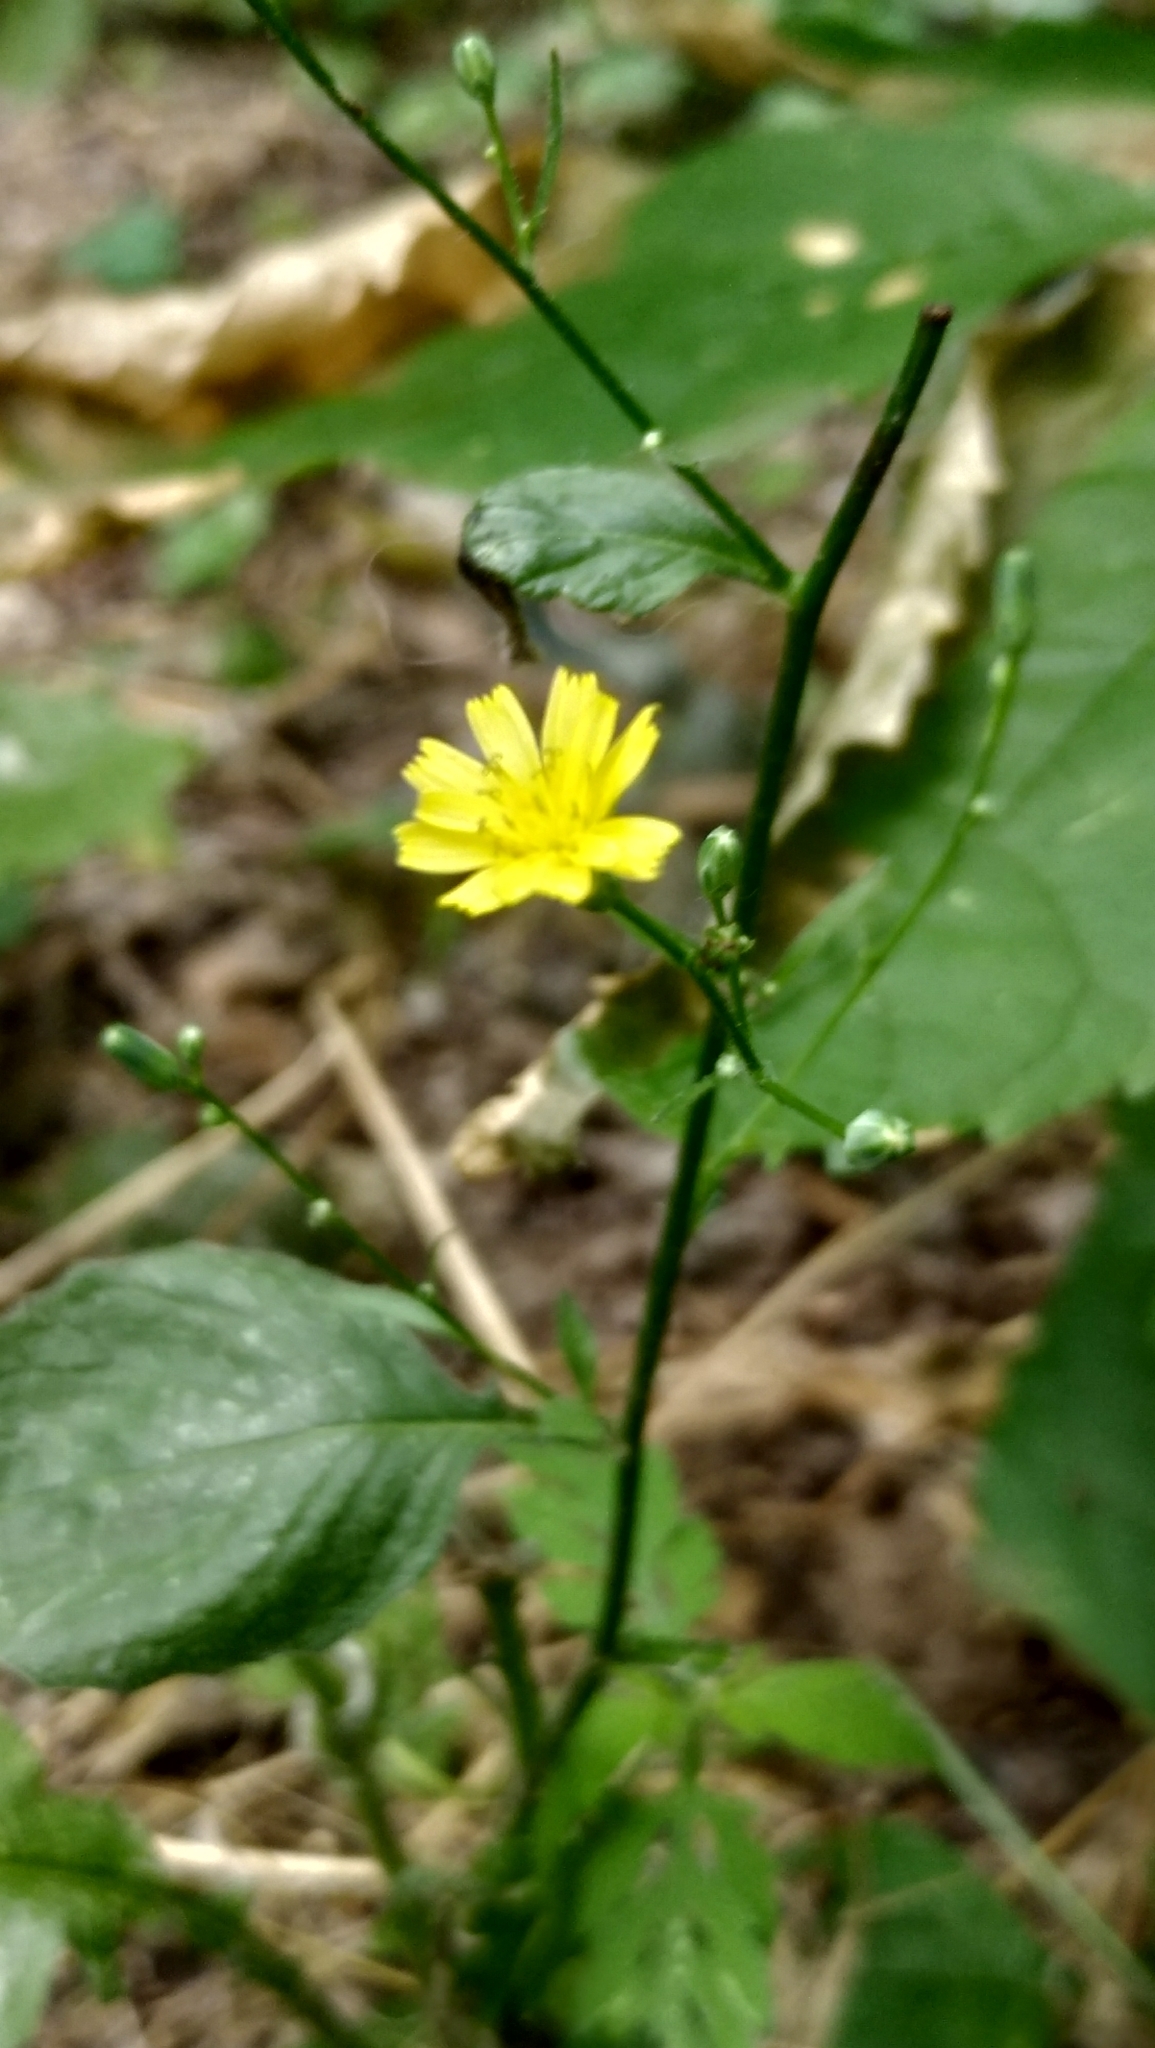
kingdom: Plantae
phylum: Tracheophyta
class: Magnoliopsida
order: Asterales
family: Asteraceae
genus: Lapsana
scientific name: Lapsana communis
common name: Nipplewort
